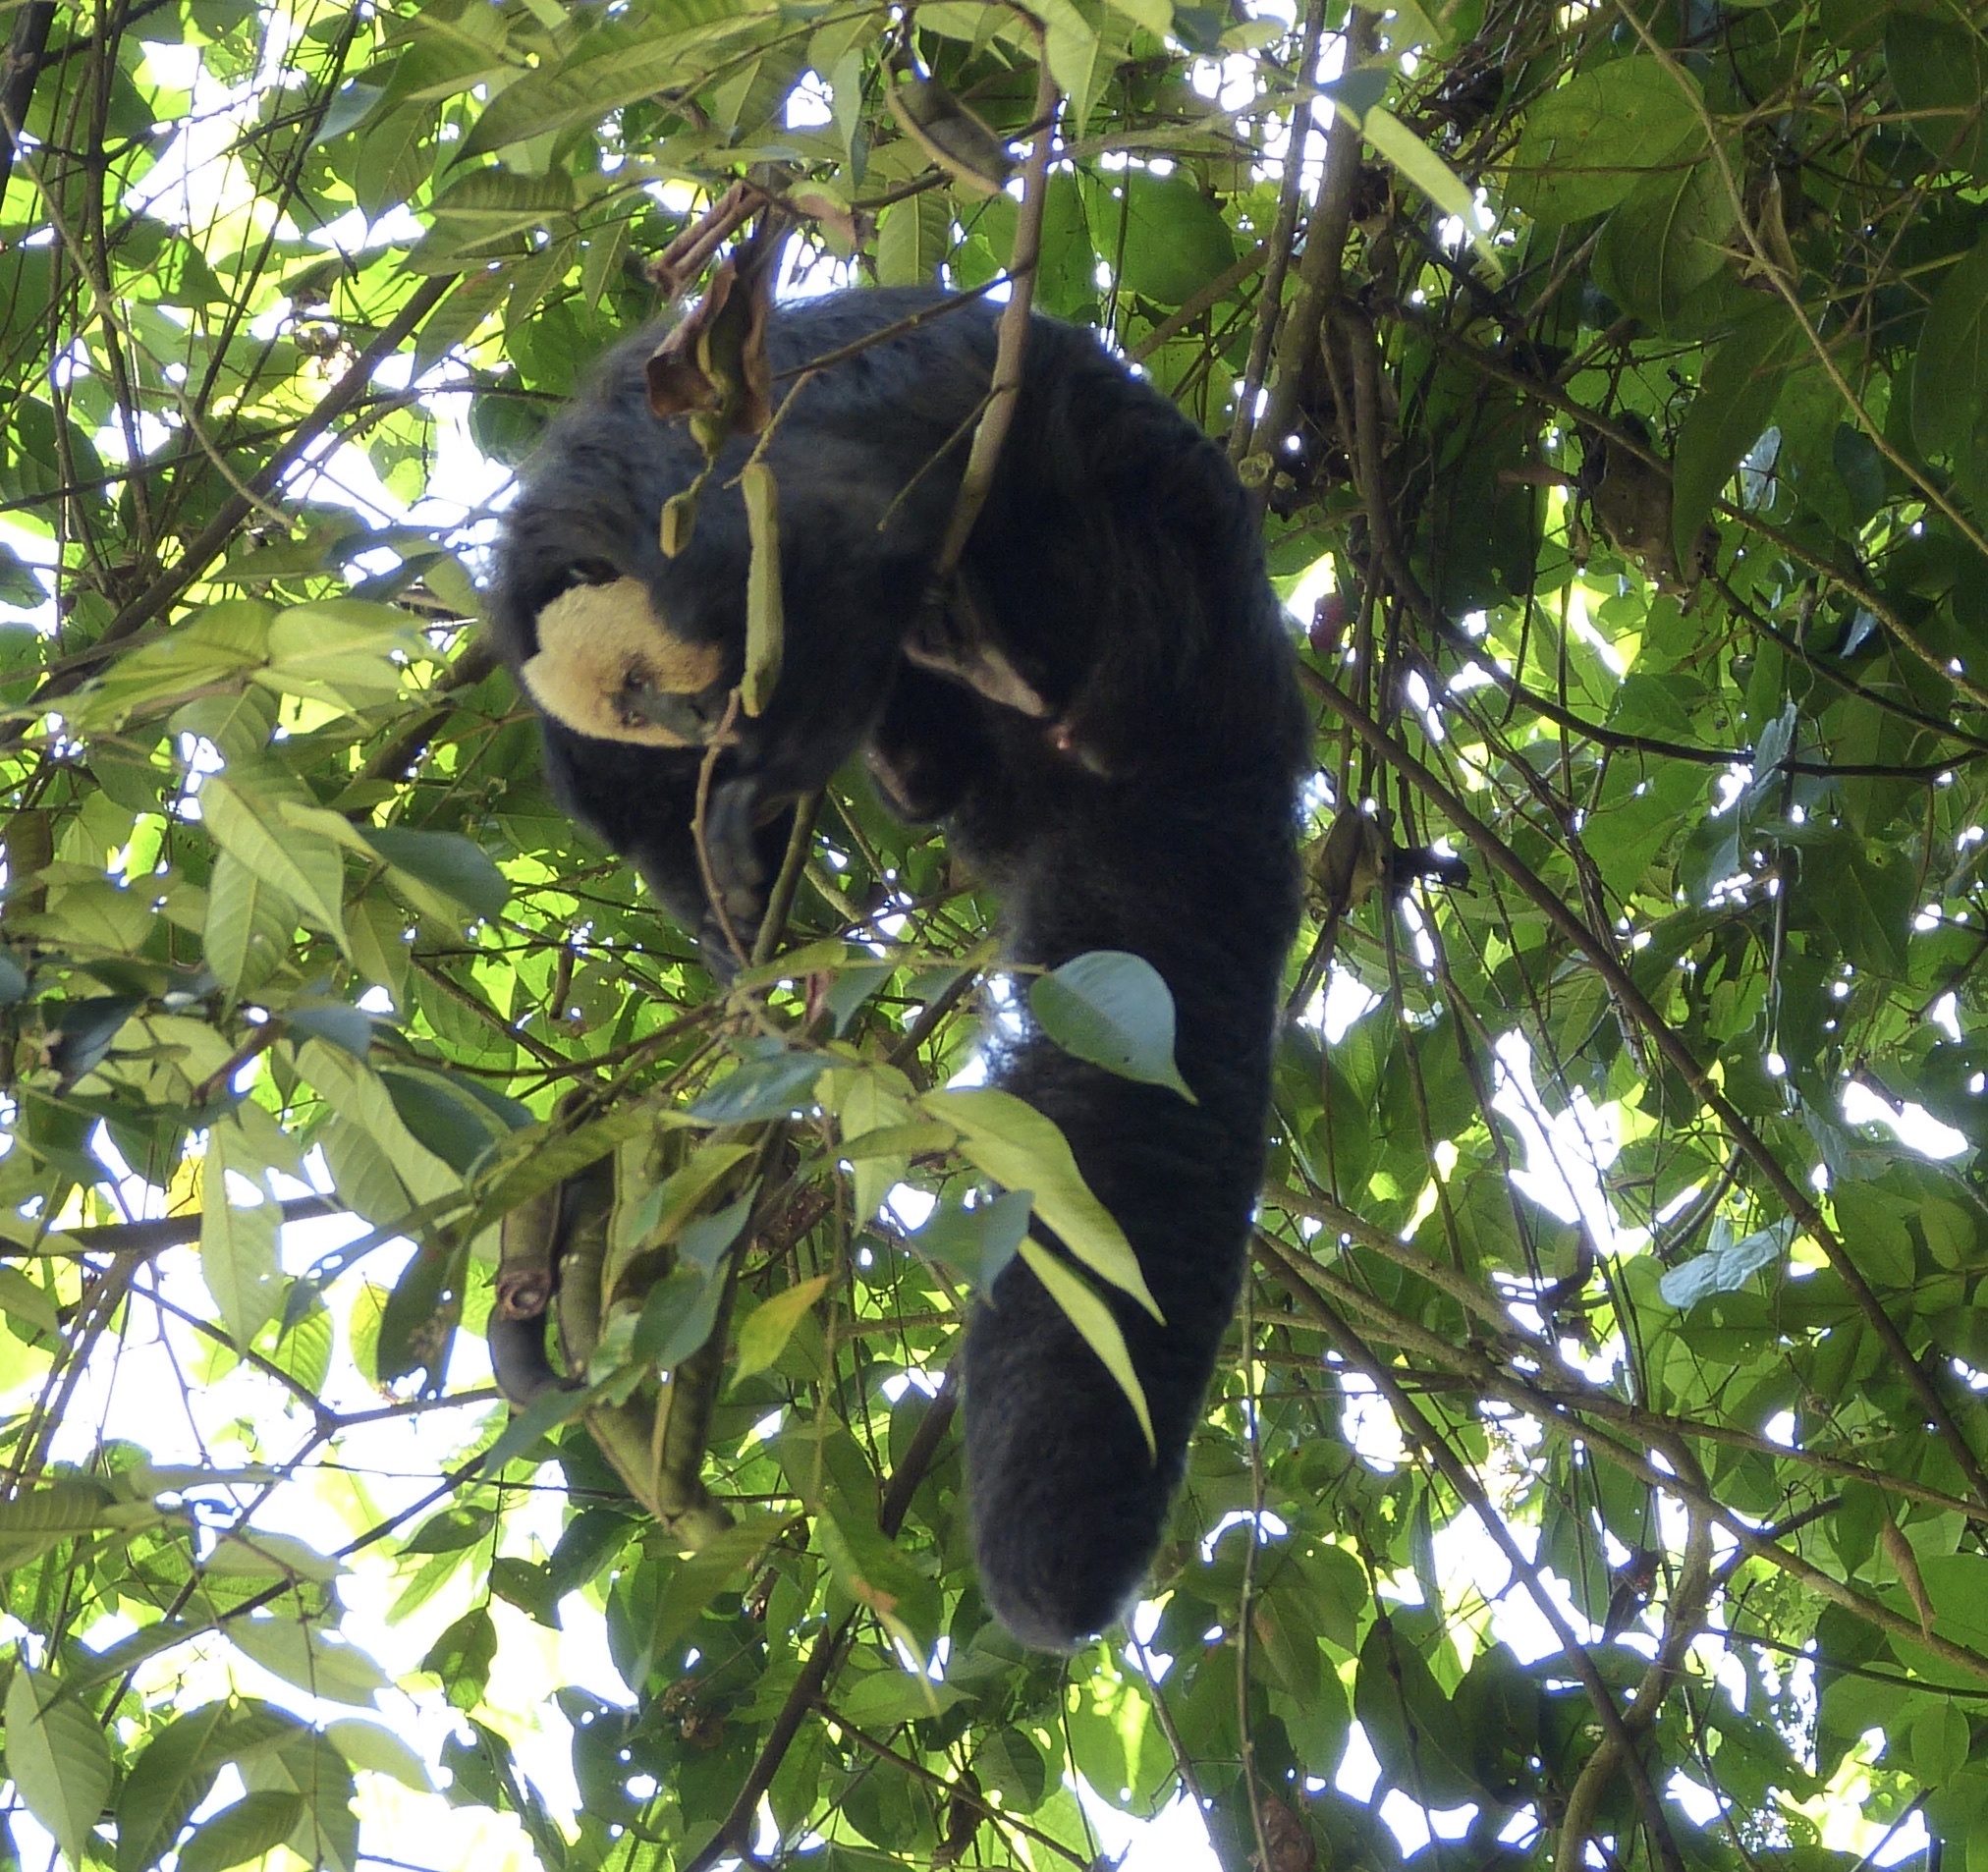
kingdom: Animalia
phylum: Chordata
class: Mammalia
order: Primates
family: Pitheciidae
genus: Pithecia
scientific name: Pithecia pithecia
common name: White-faced saki
